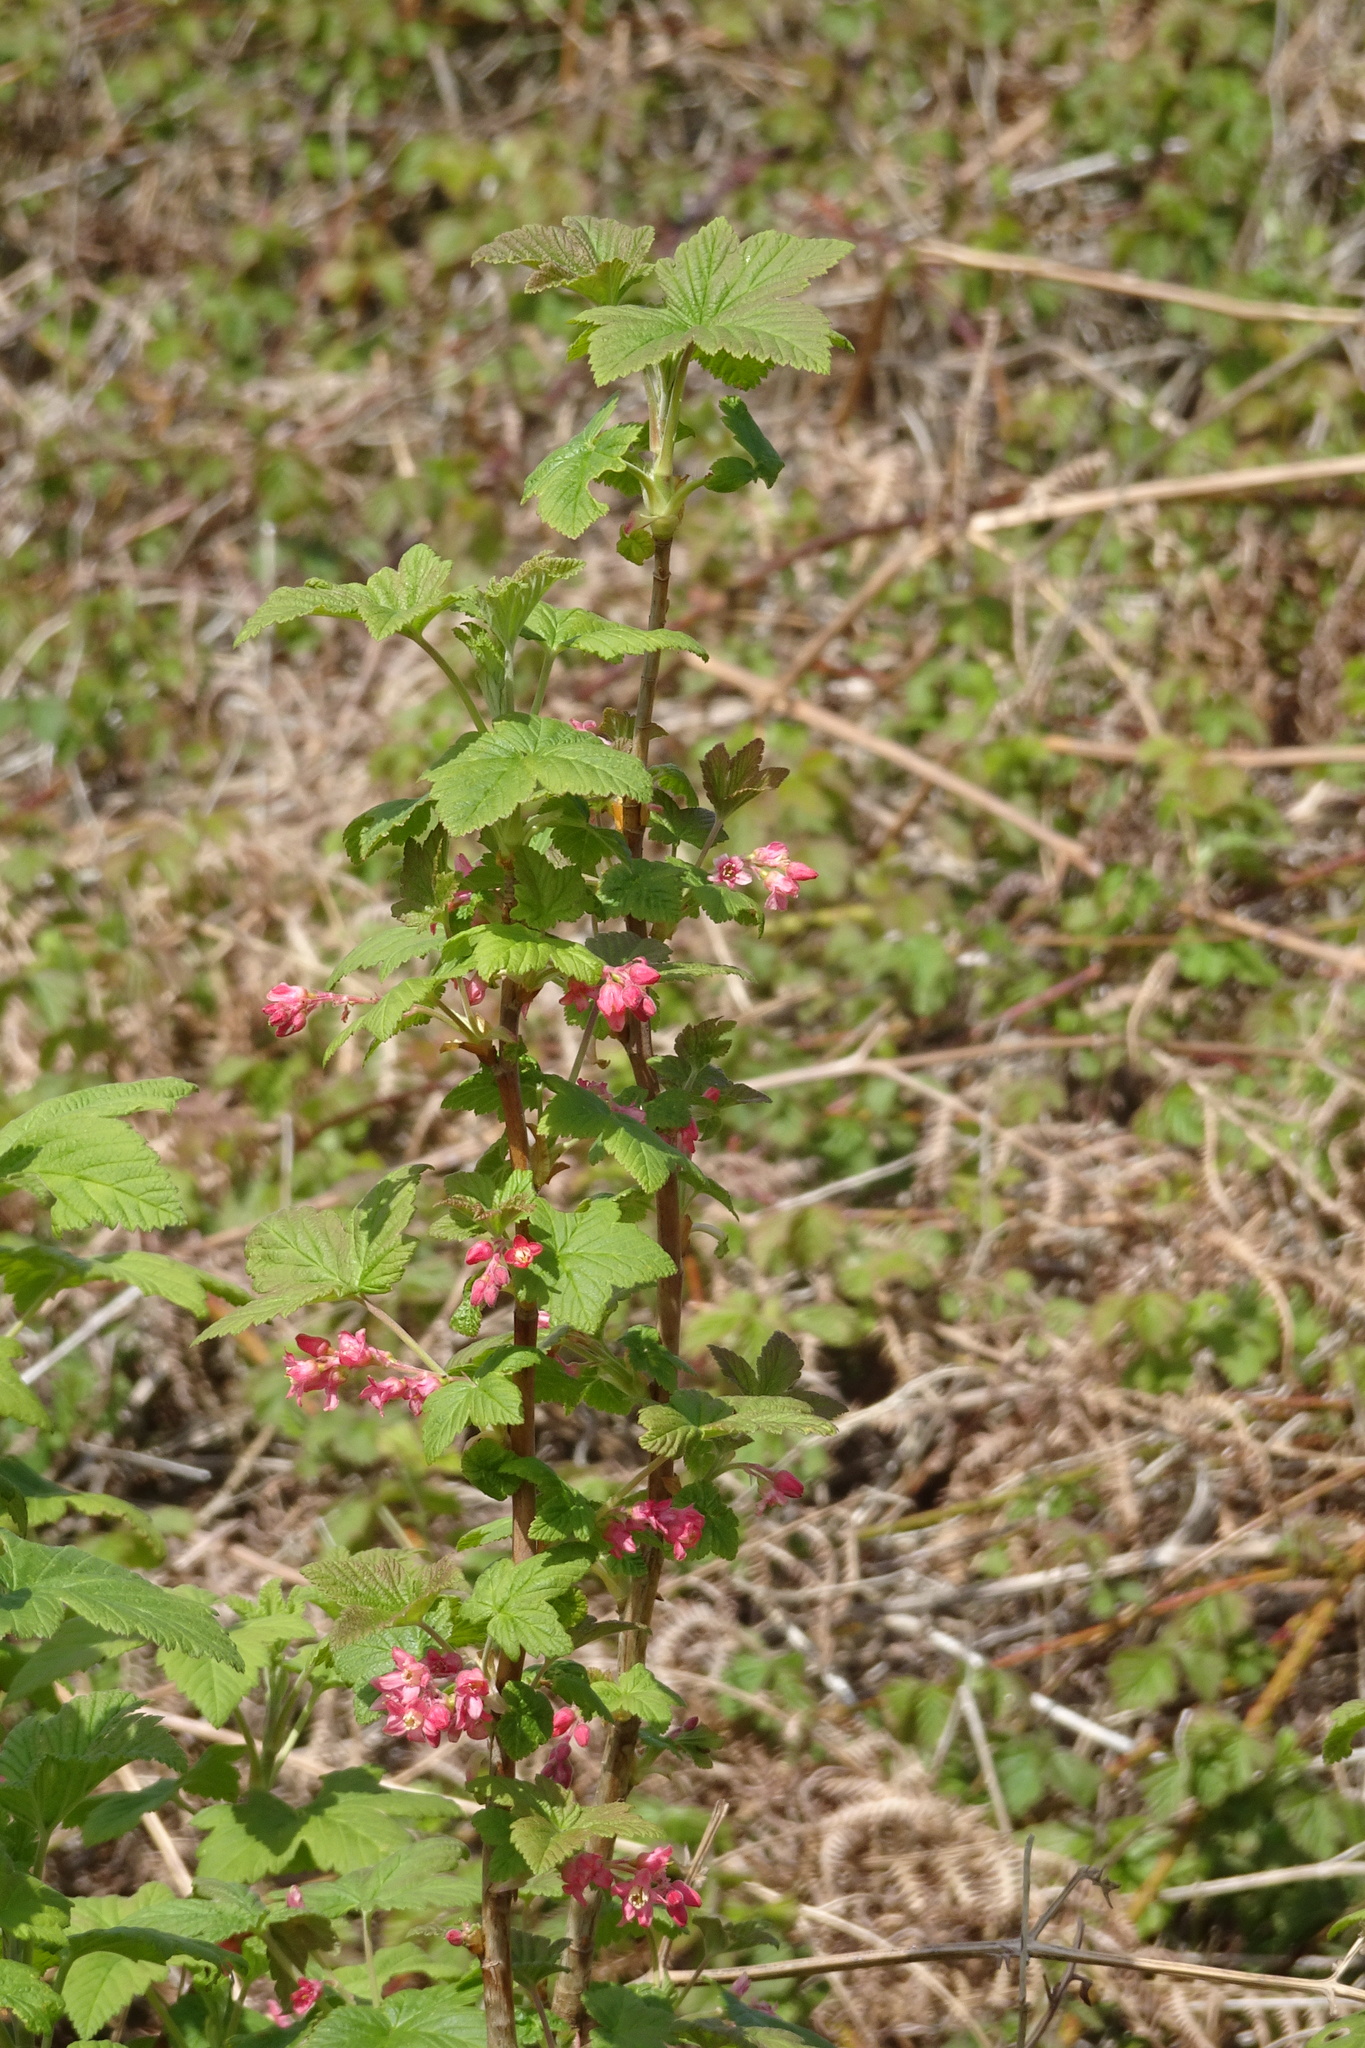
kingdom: Plantae
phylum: Tracheophyta
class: Magnoliopsida
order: Saxifragales
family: Grossulariaceae
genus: Ribes
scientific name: Ribes sanguineum
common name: Flowering currant
